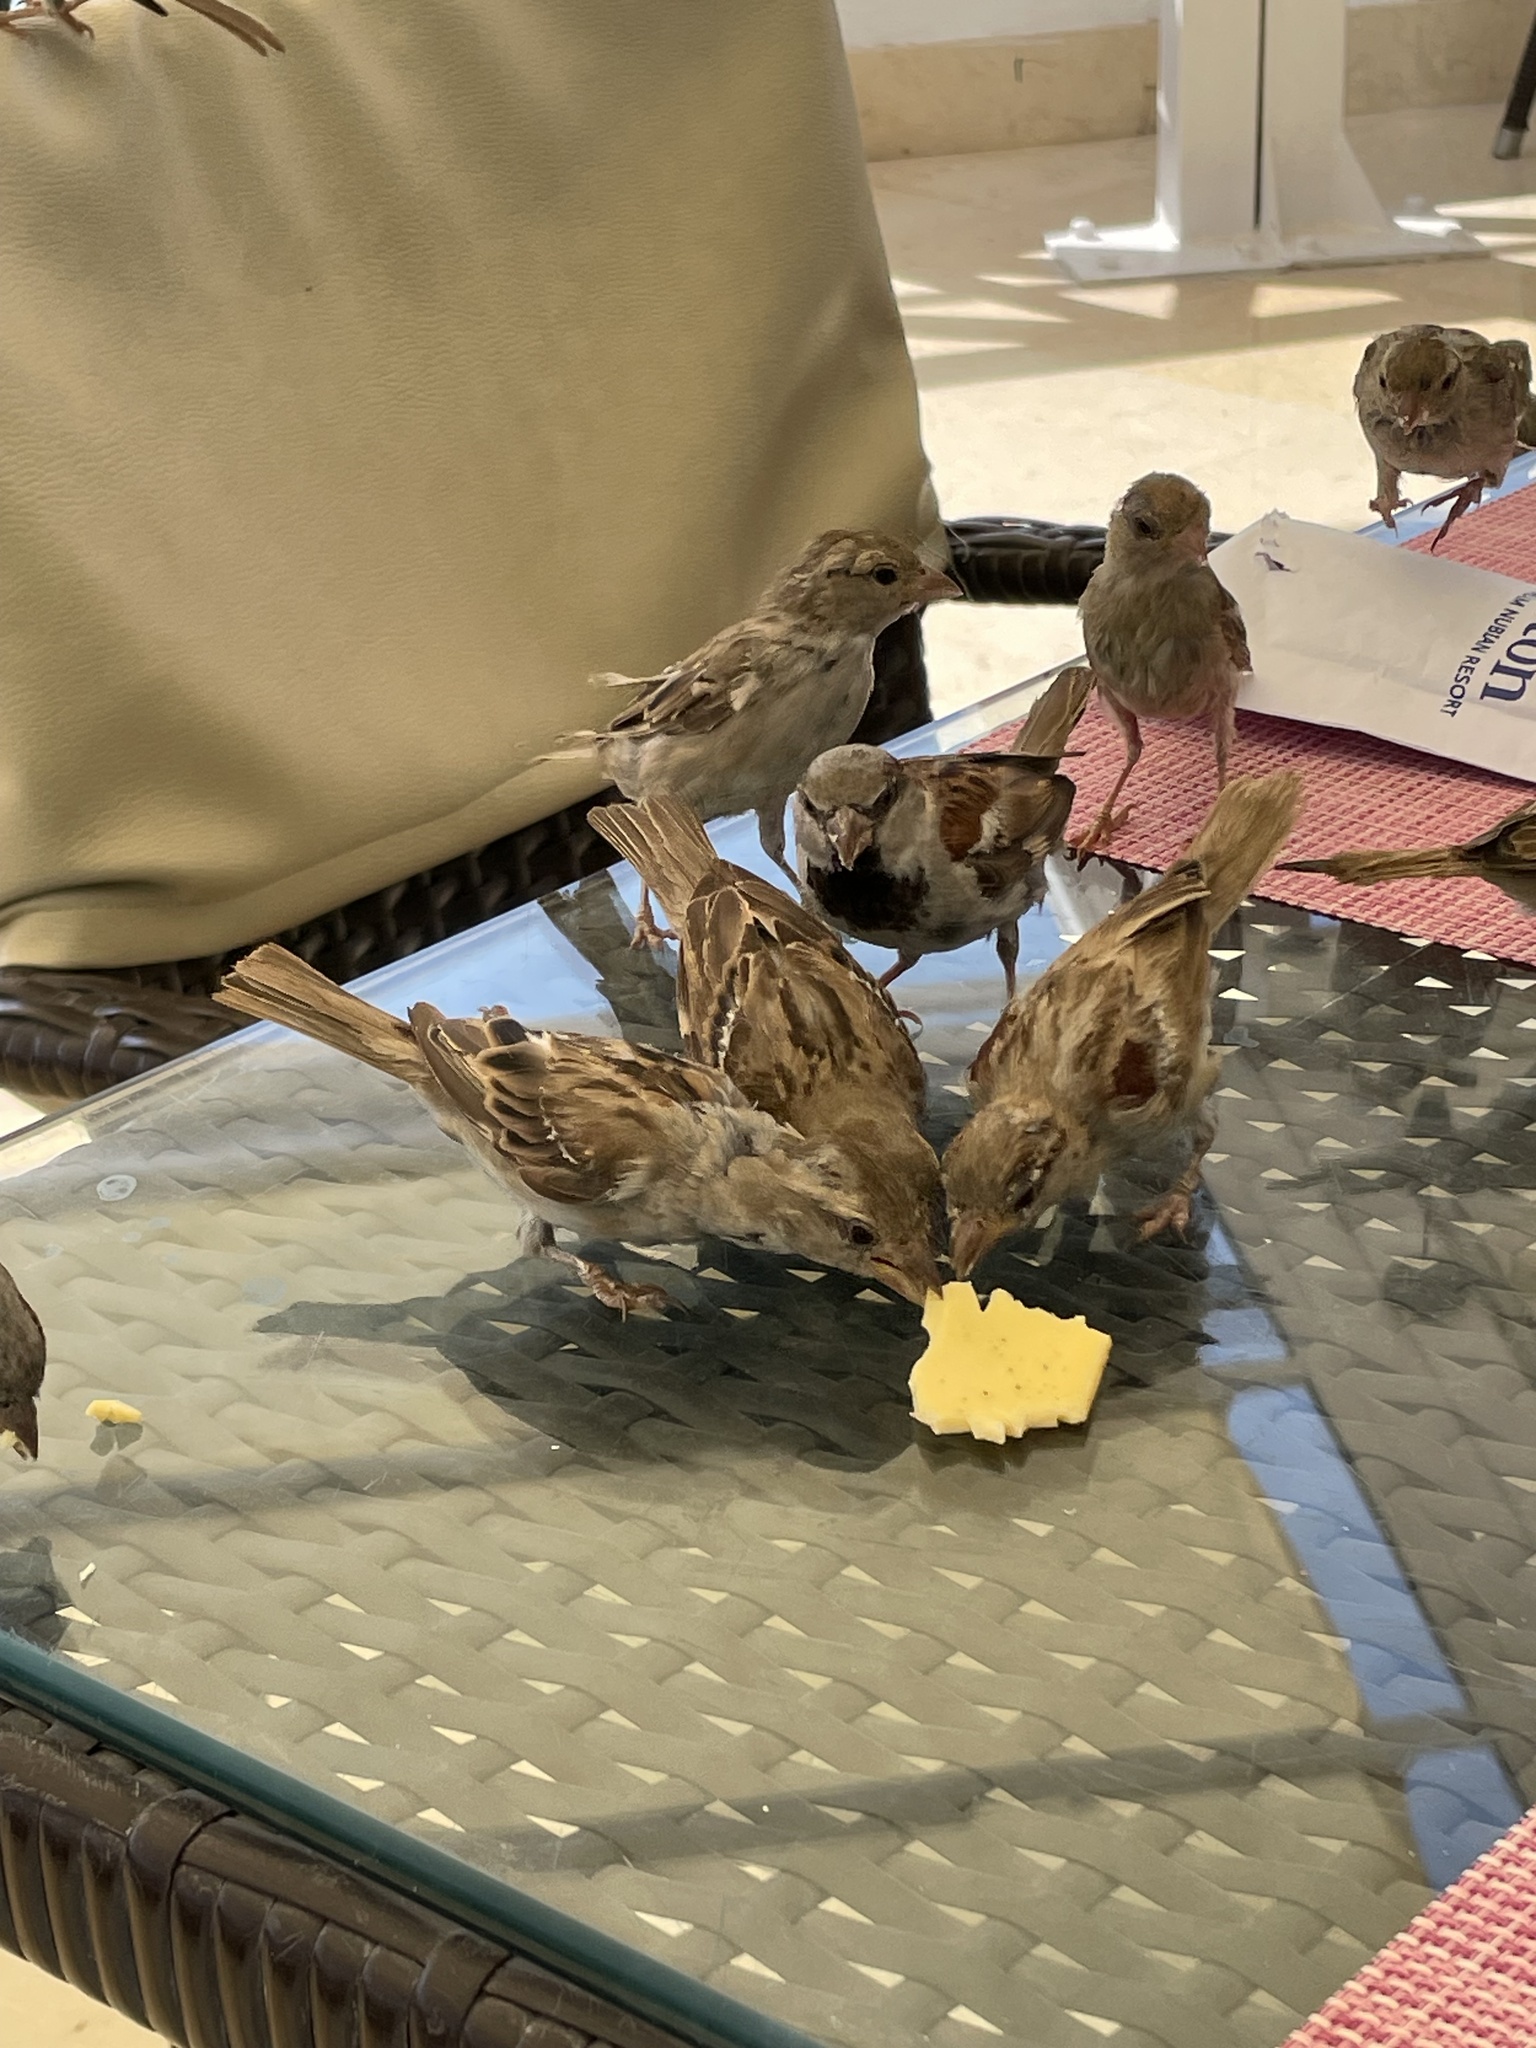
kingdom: Animalia
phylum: Chordata
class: Aves
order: Passeriformes
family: Passeridae
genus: Passer
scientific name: Passer domesticus
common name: House sparrow
